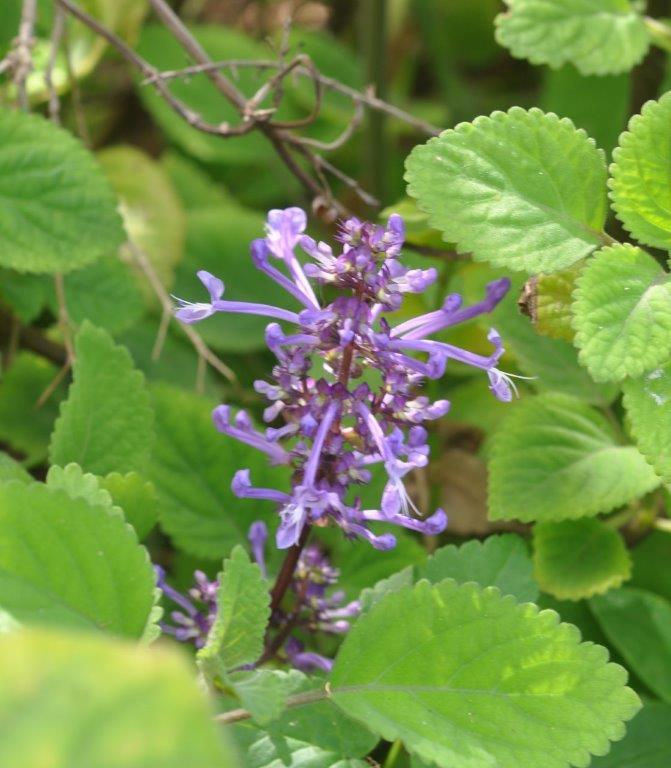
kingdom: Plantae
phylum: Tracheophyta
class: Magnoliopsida
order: Lamiales
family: Lamiaceae
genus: Plectranthus
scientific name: Plectranthus ambiguus
